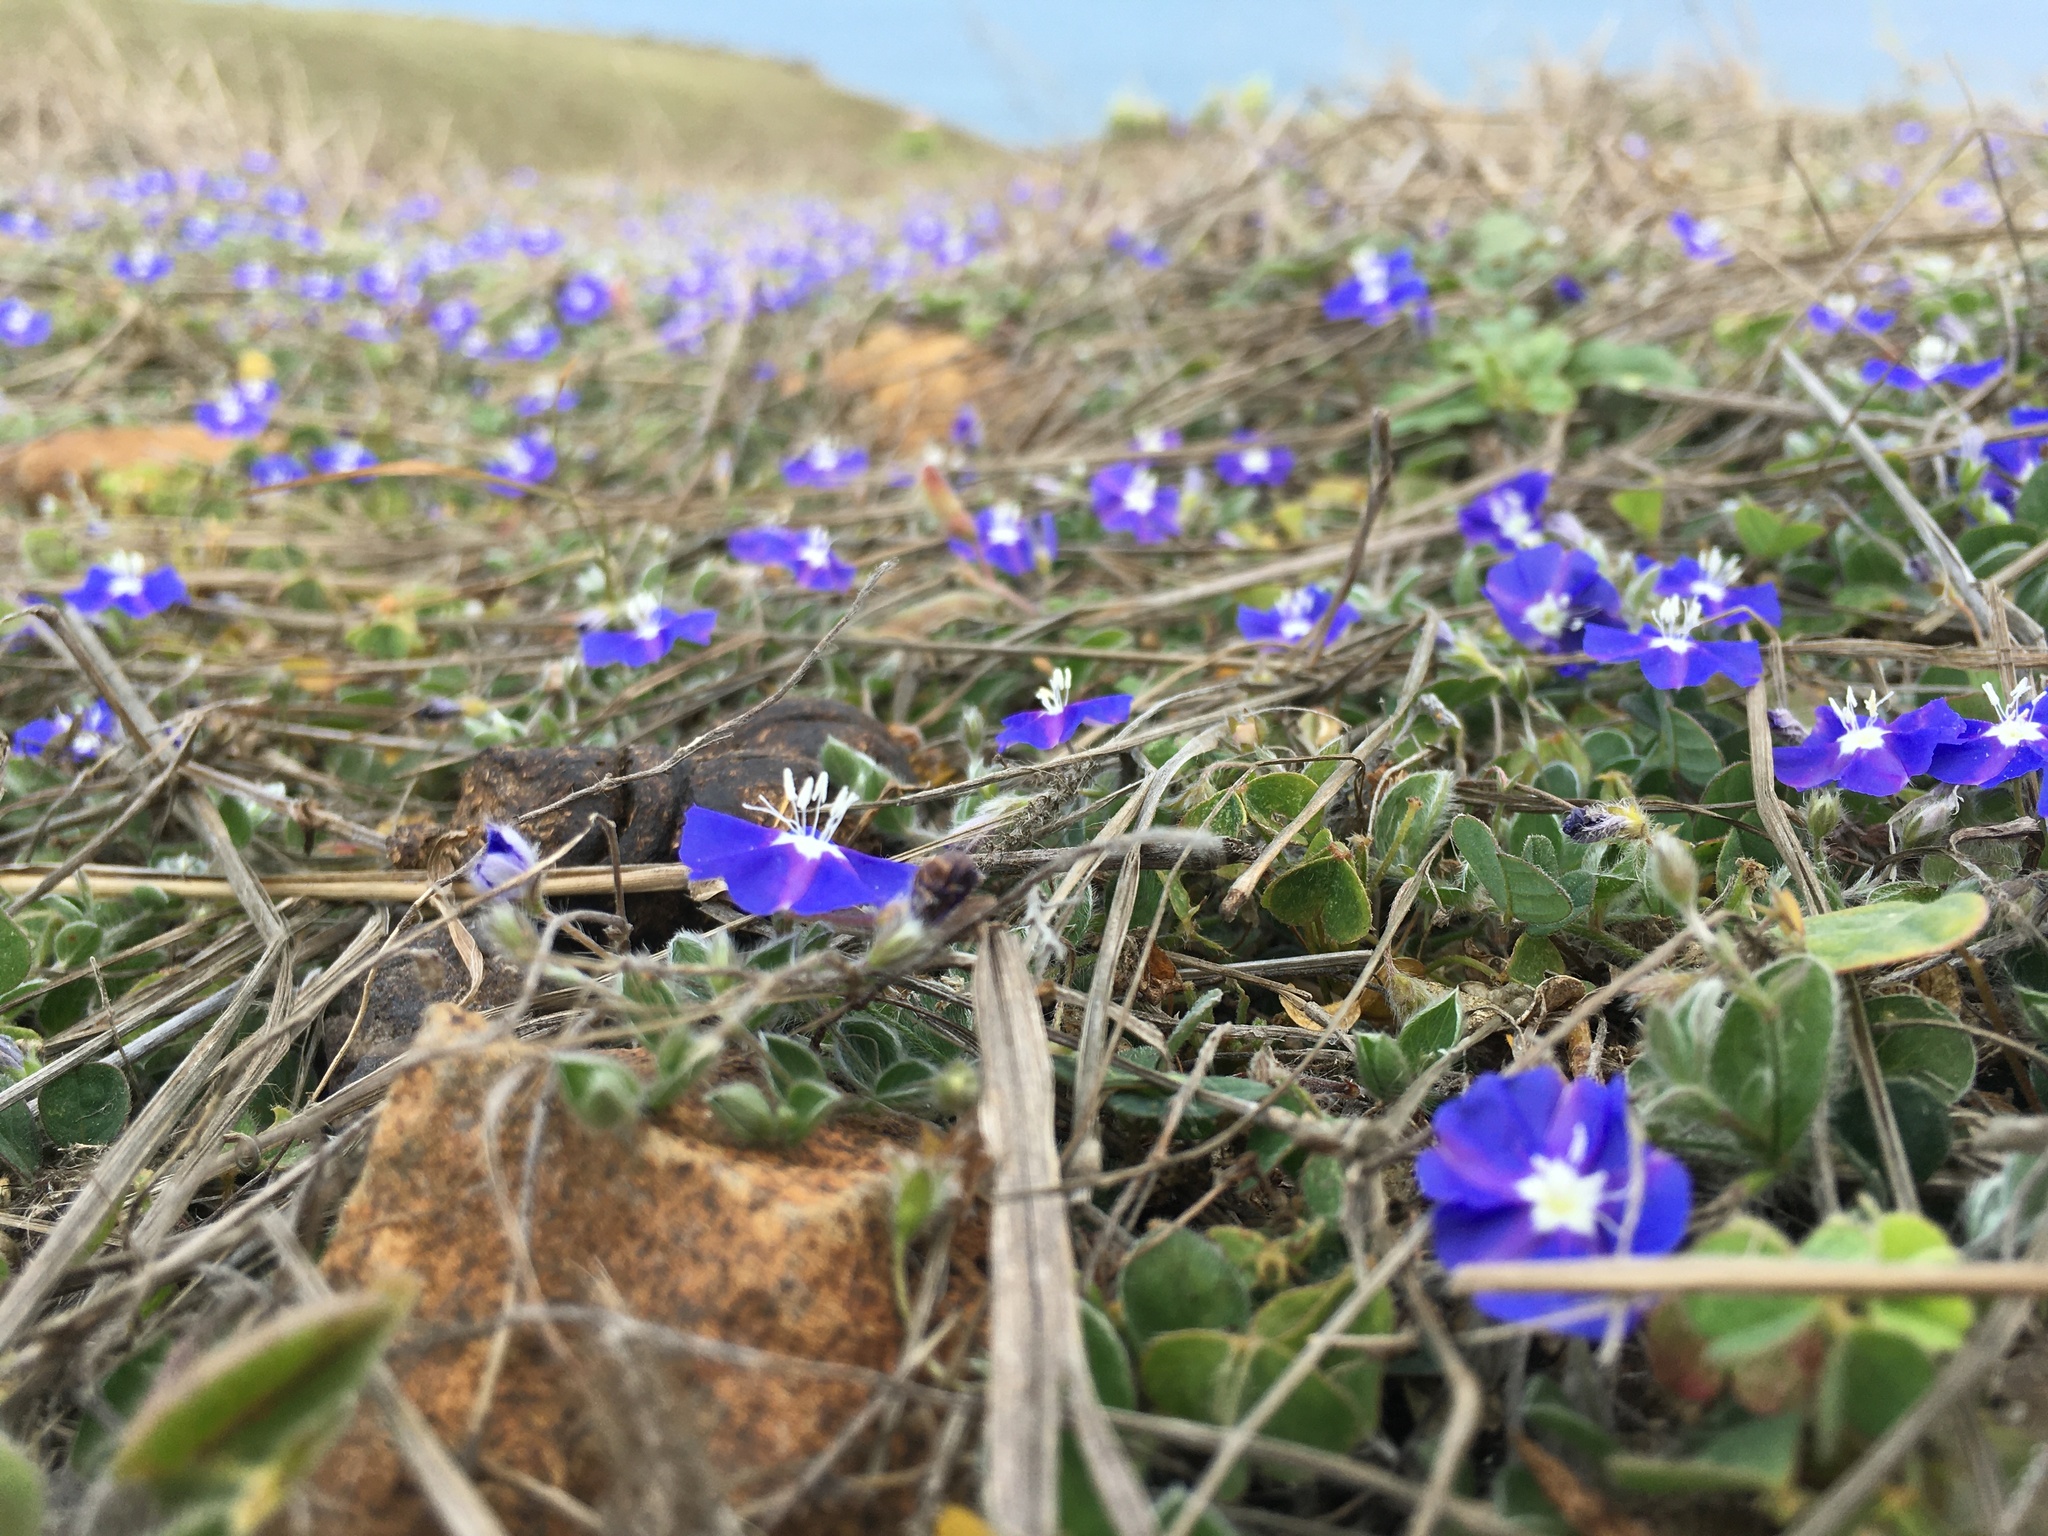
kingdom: Plantae
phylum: Tracheophyta
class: Magnoliopsida
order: Solanales
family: Convolvulaceae
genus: Evolvulus
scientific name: Evolvulus alsinoides
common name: Slender dwarf morning-glory
